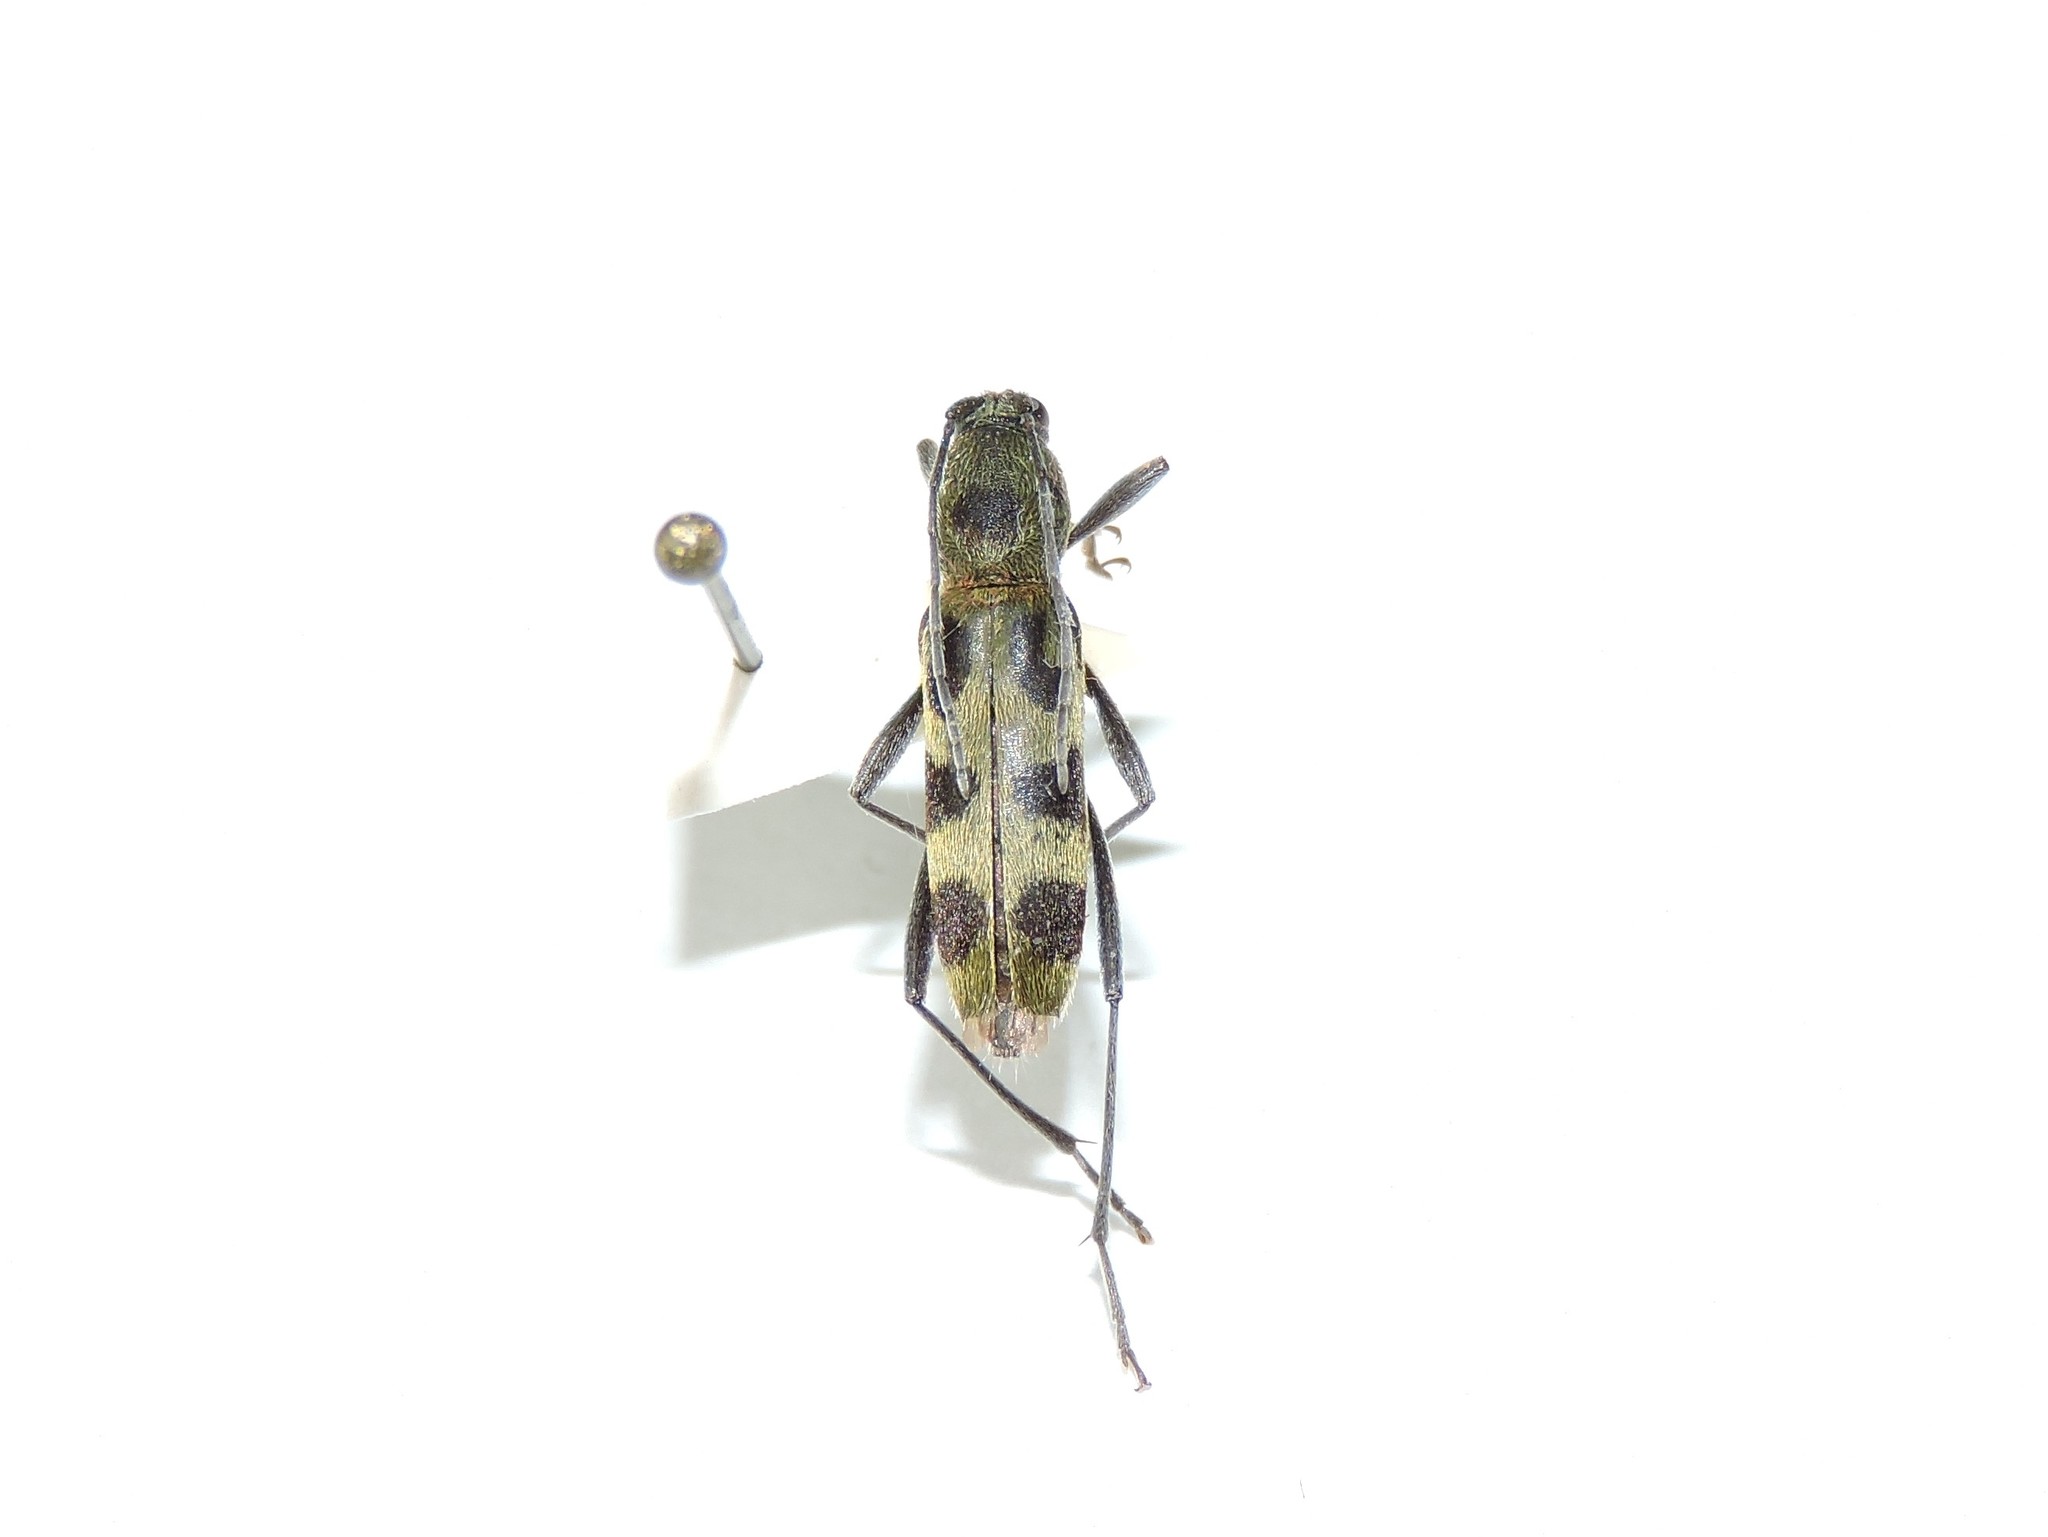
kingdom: Animalia
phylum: Arthropoda
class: Insecta
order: Coleoptera
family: Cerambycidae
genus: Chlorophorus
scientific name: Chlorophorus herbstii
